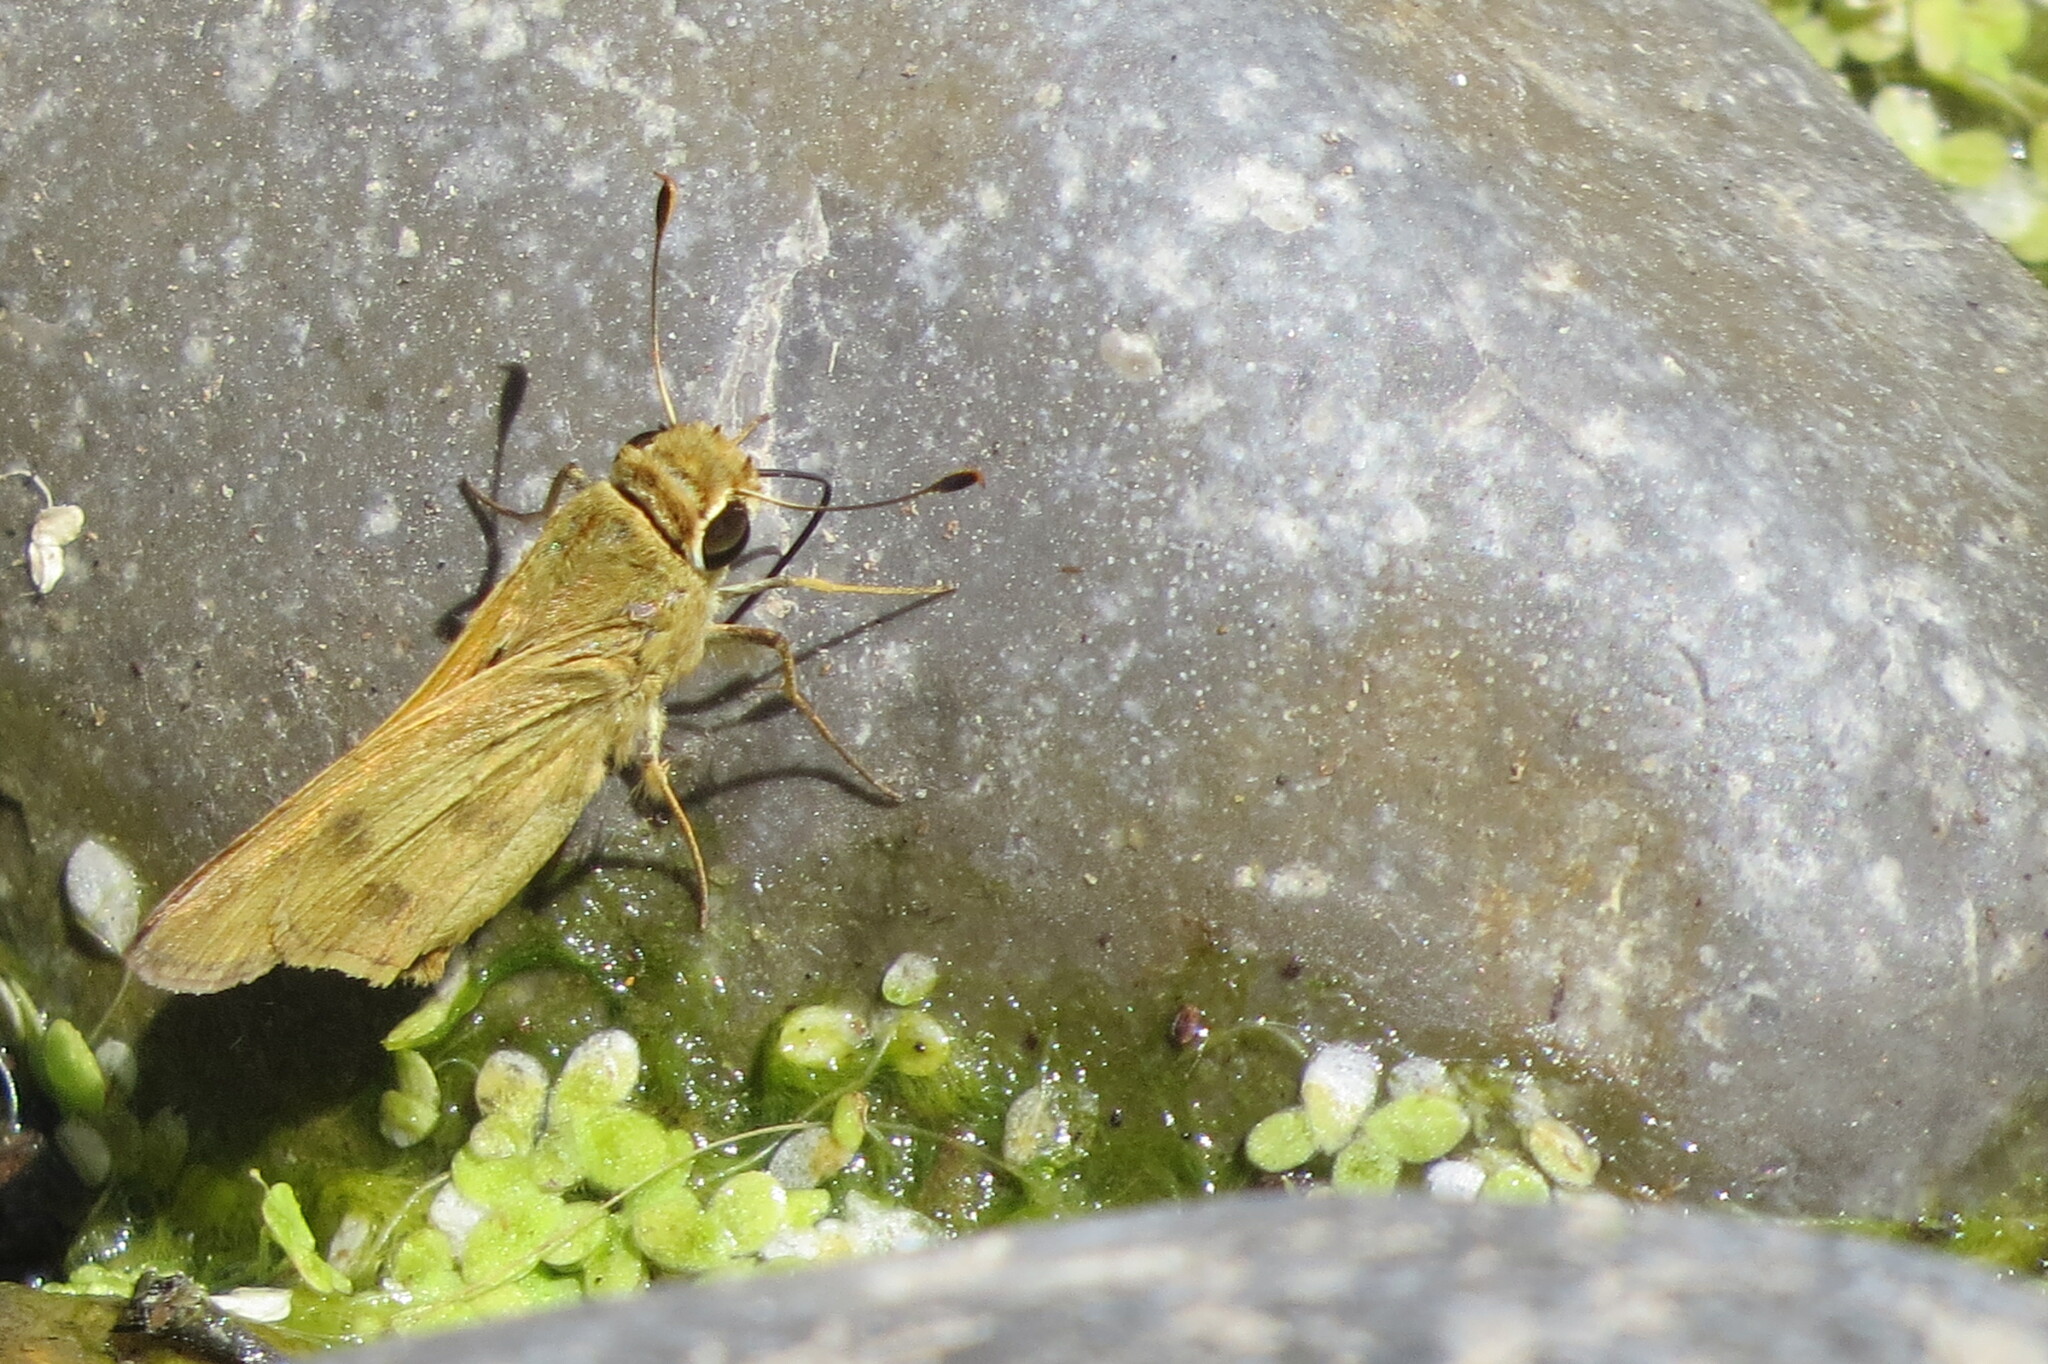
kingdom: Animalia
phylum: Arthropoda
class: Insecta
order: Lepidoptera
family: Hesperiidae
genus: Polites
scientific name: Polites vibex
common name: Whirlabout
